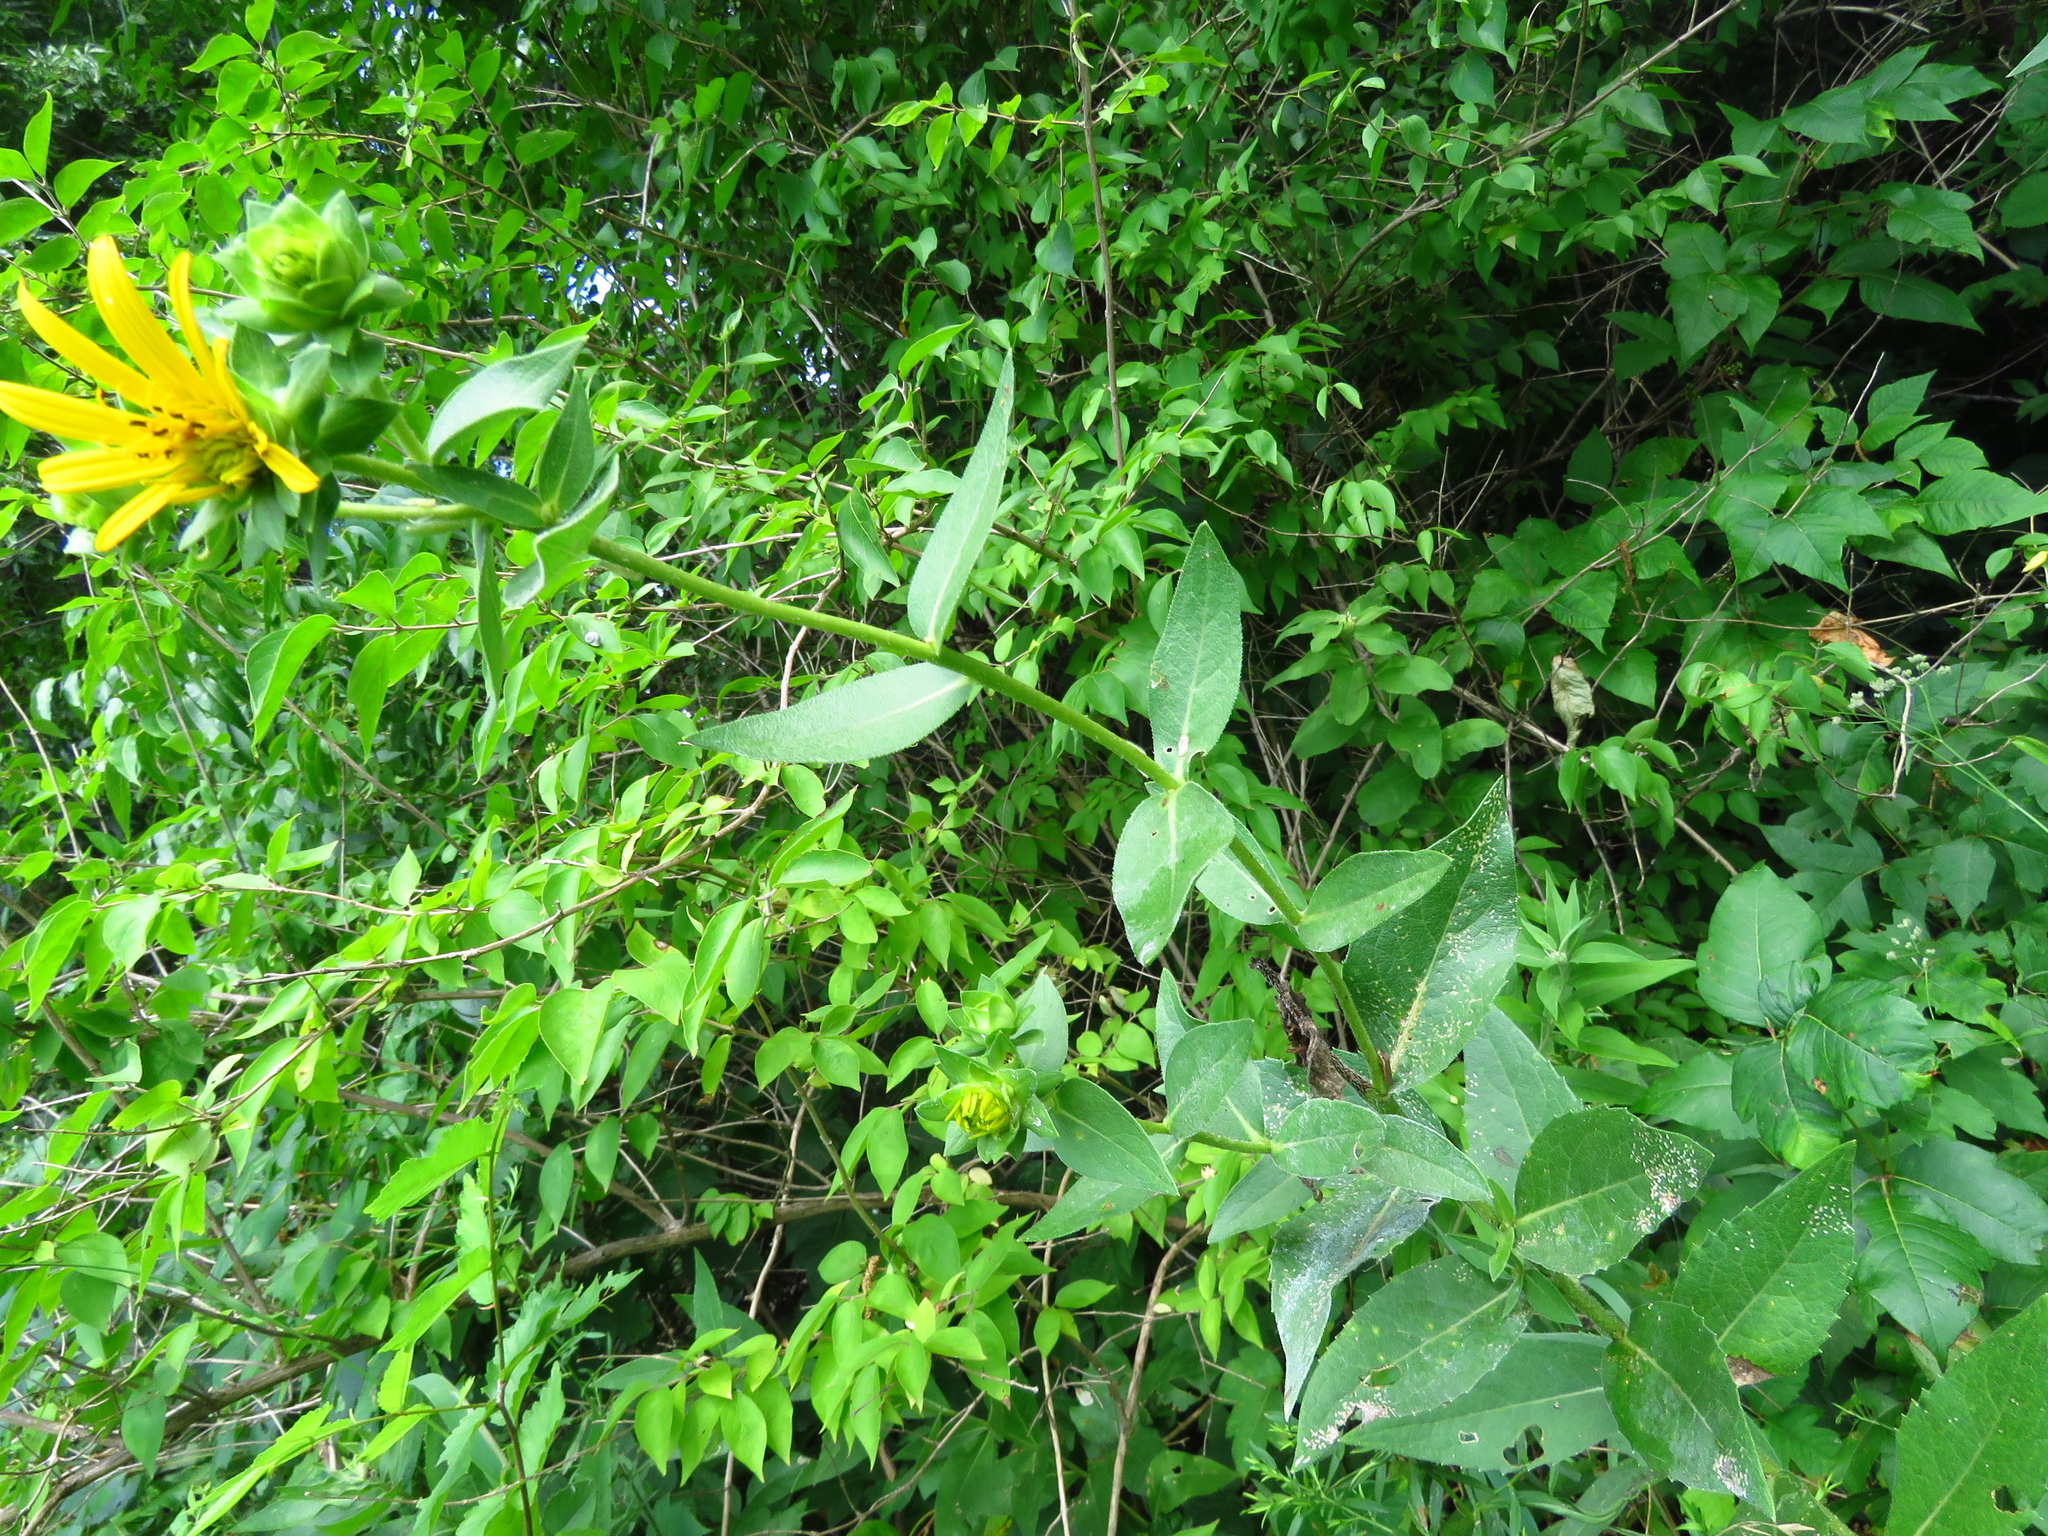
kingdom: Plantae
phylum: Tracheophyta
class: Magnoliopsida
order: Asterales
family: Asteraceae
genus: Silphium
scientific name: Silphium radula
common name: Roughleaf rosinweed
